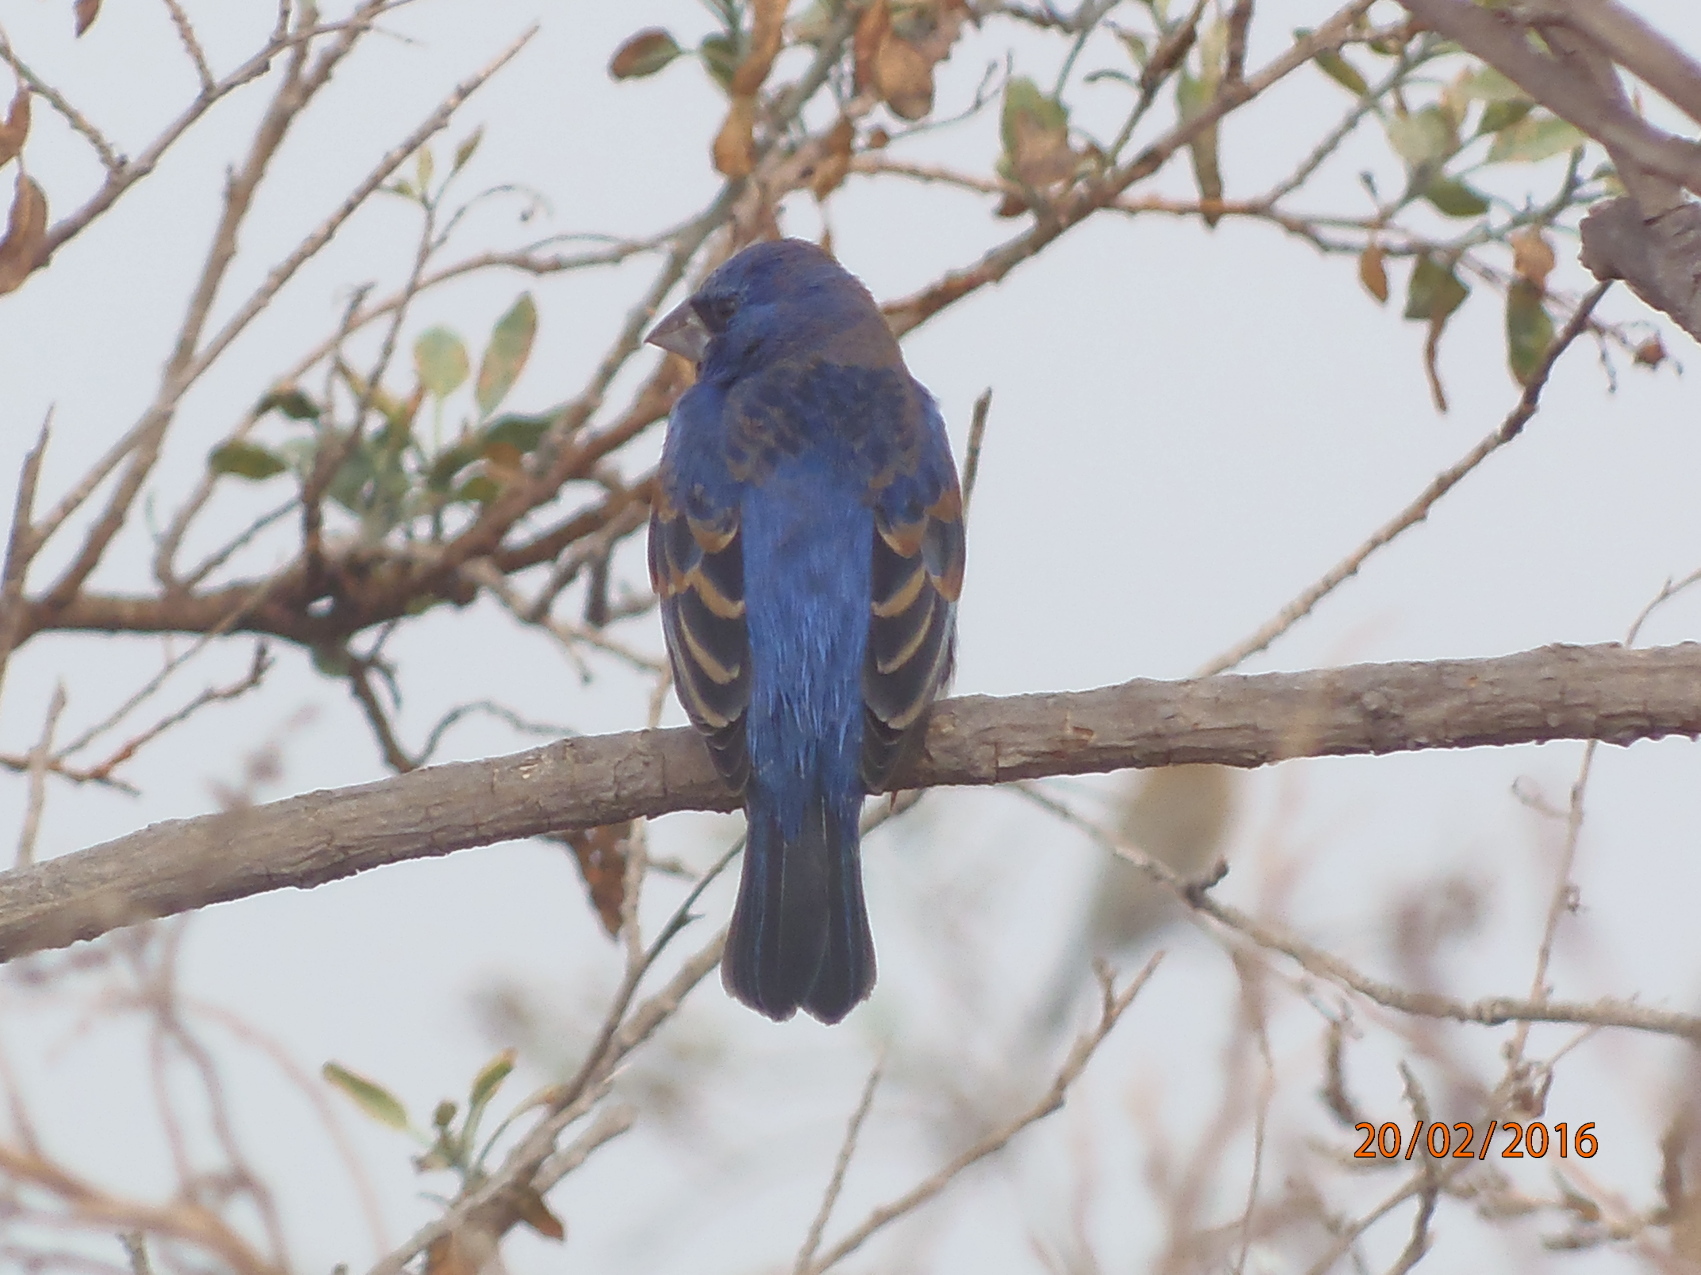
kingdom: Animalia
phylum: Chordata
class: Aves
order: Passeriformes
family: Cardinalidae
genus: Passerina
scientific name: Passerina caerulea
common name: Blue grosbeak
